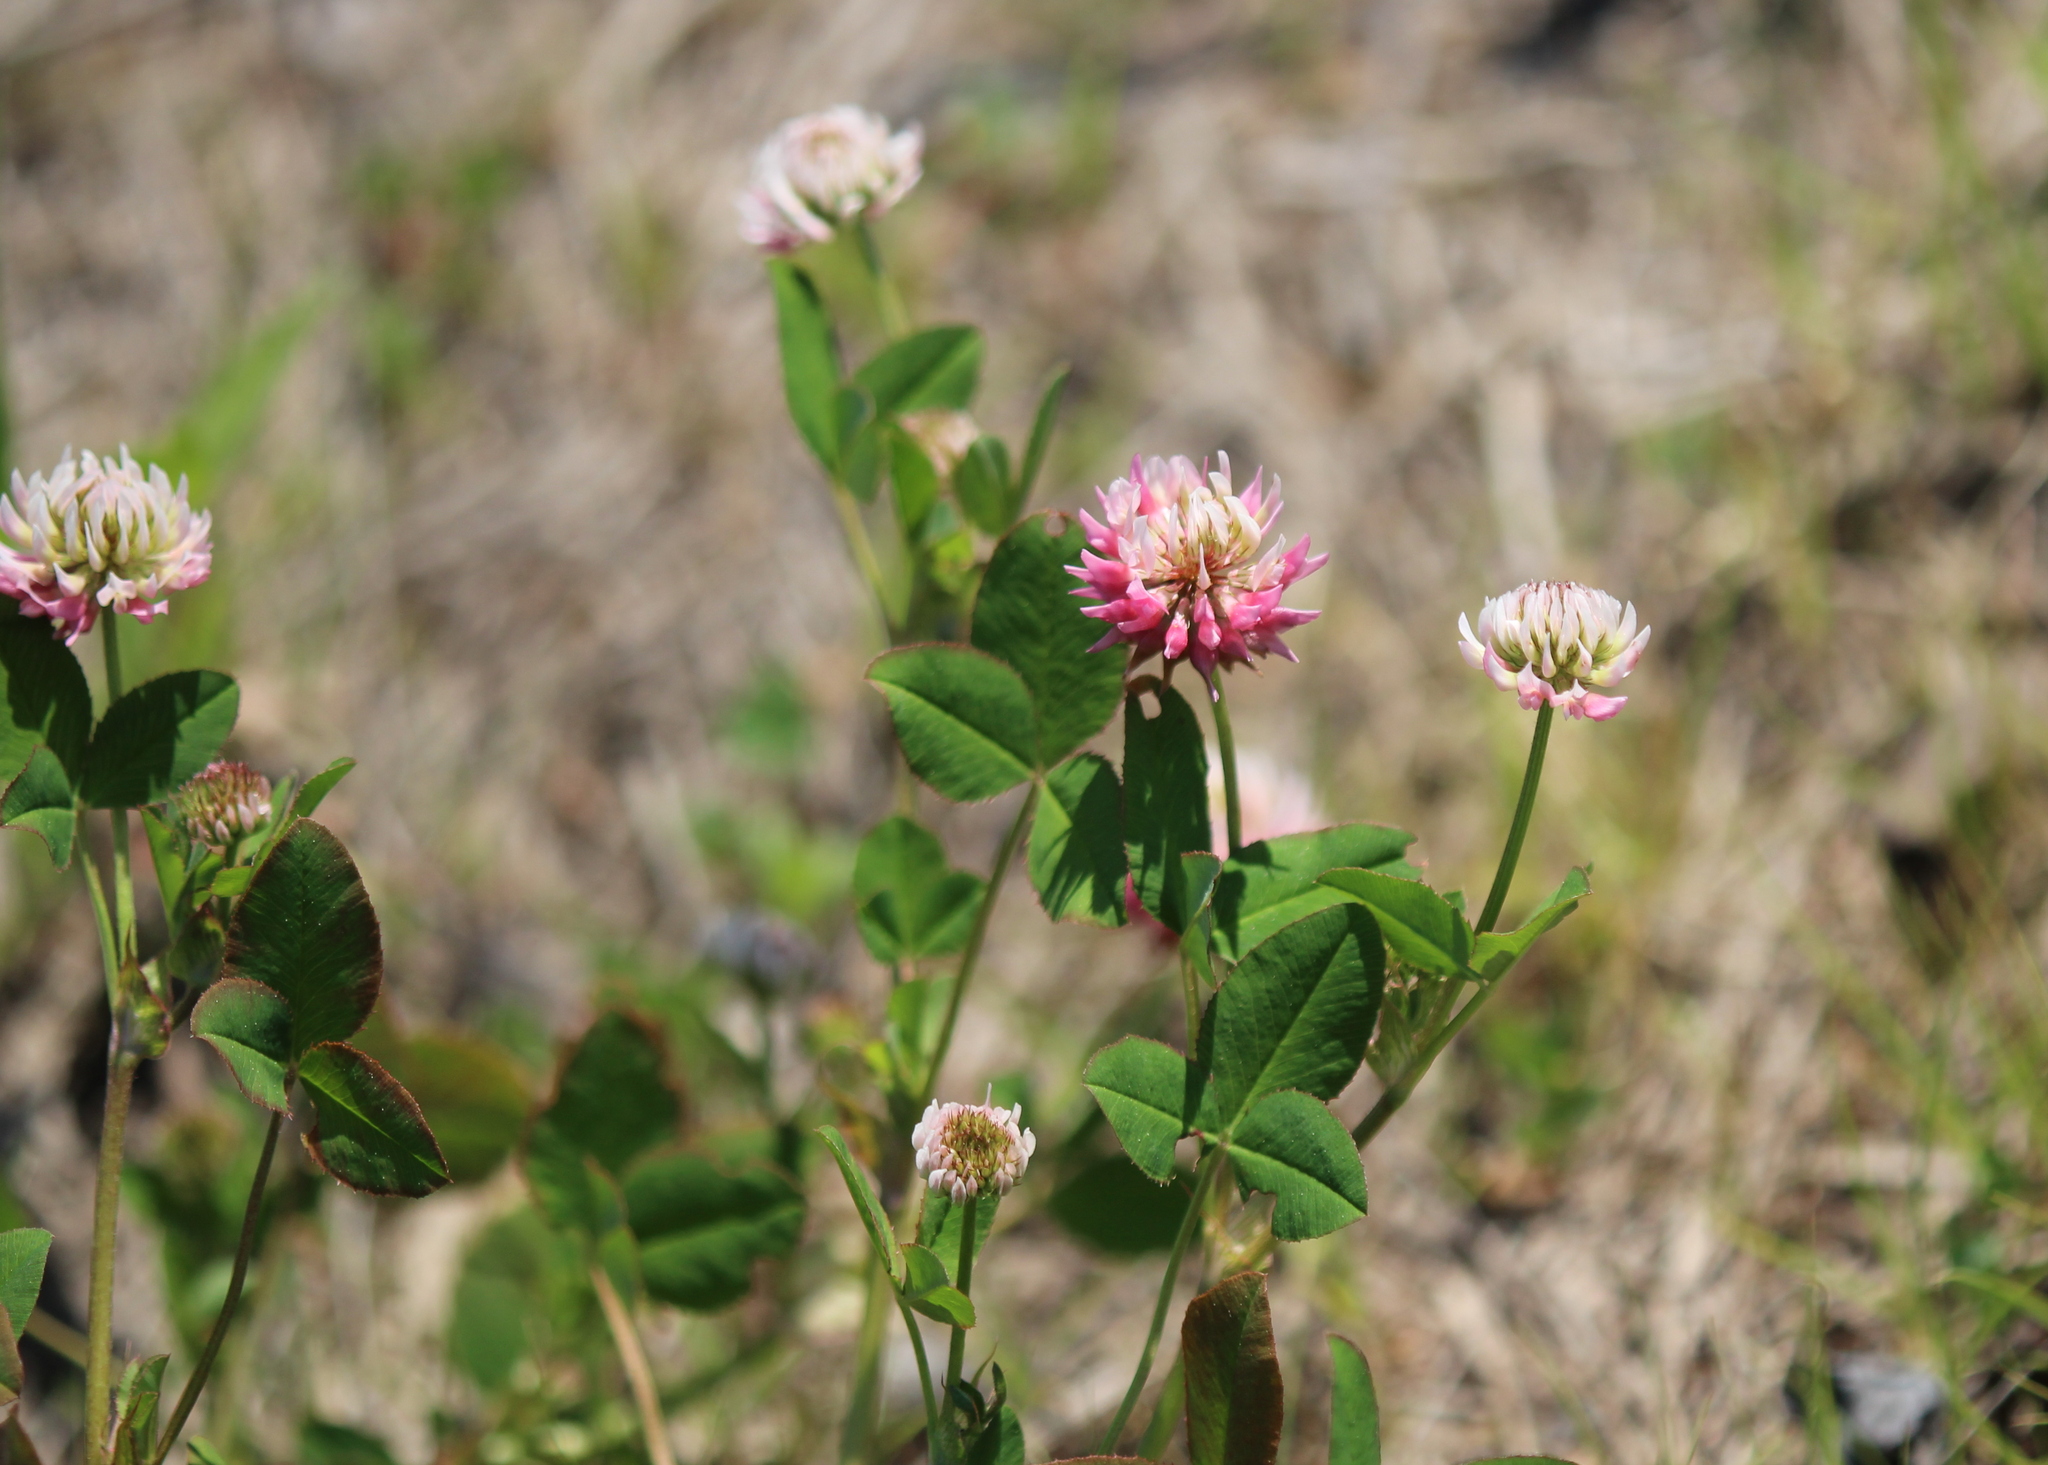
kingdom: Plantae
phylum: Tracheophyta
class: Magnoliopsida
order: Fabales
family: Fabaceae
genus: Trifolium
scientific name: Trifolium hybridum
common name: Alsike clover
